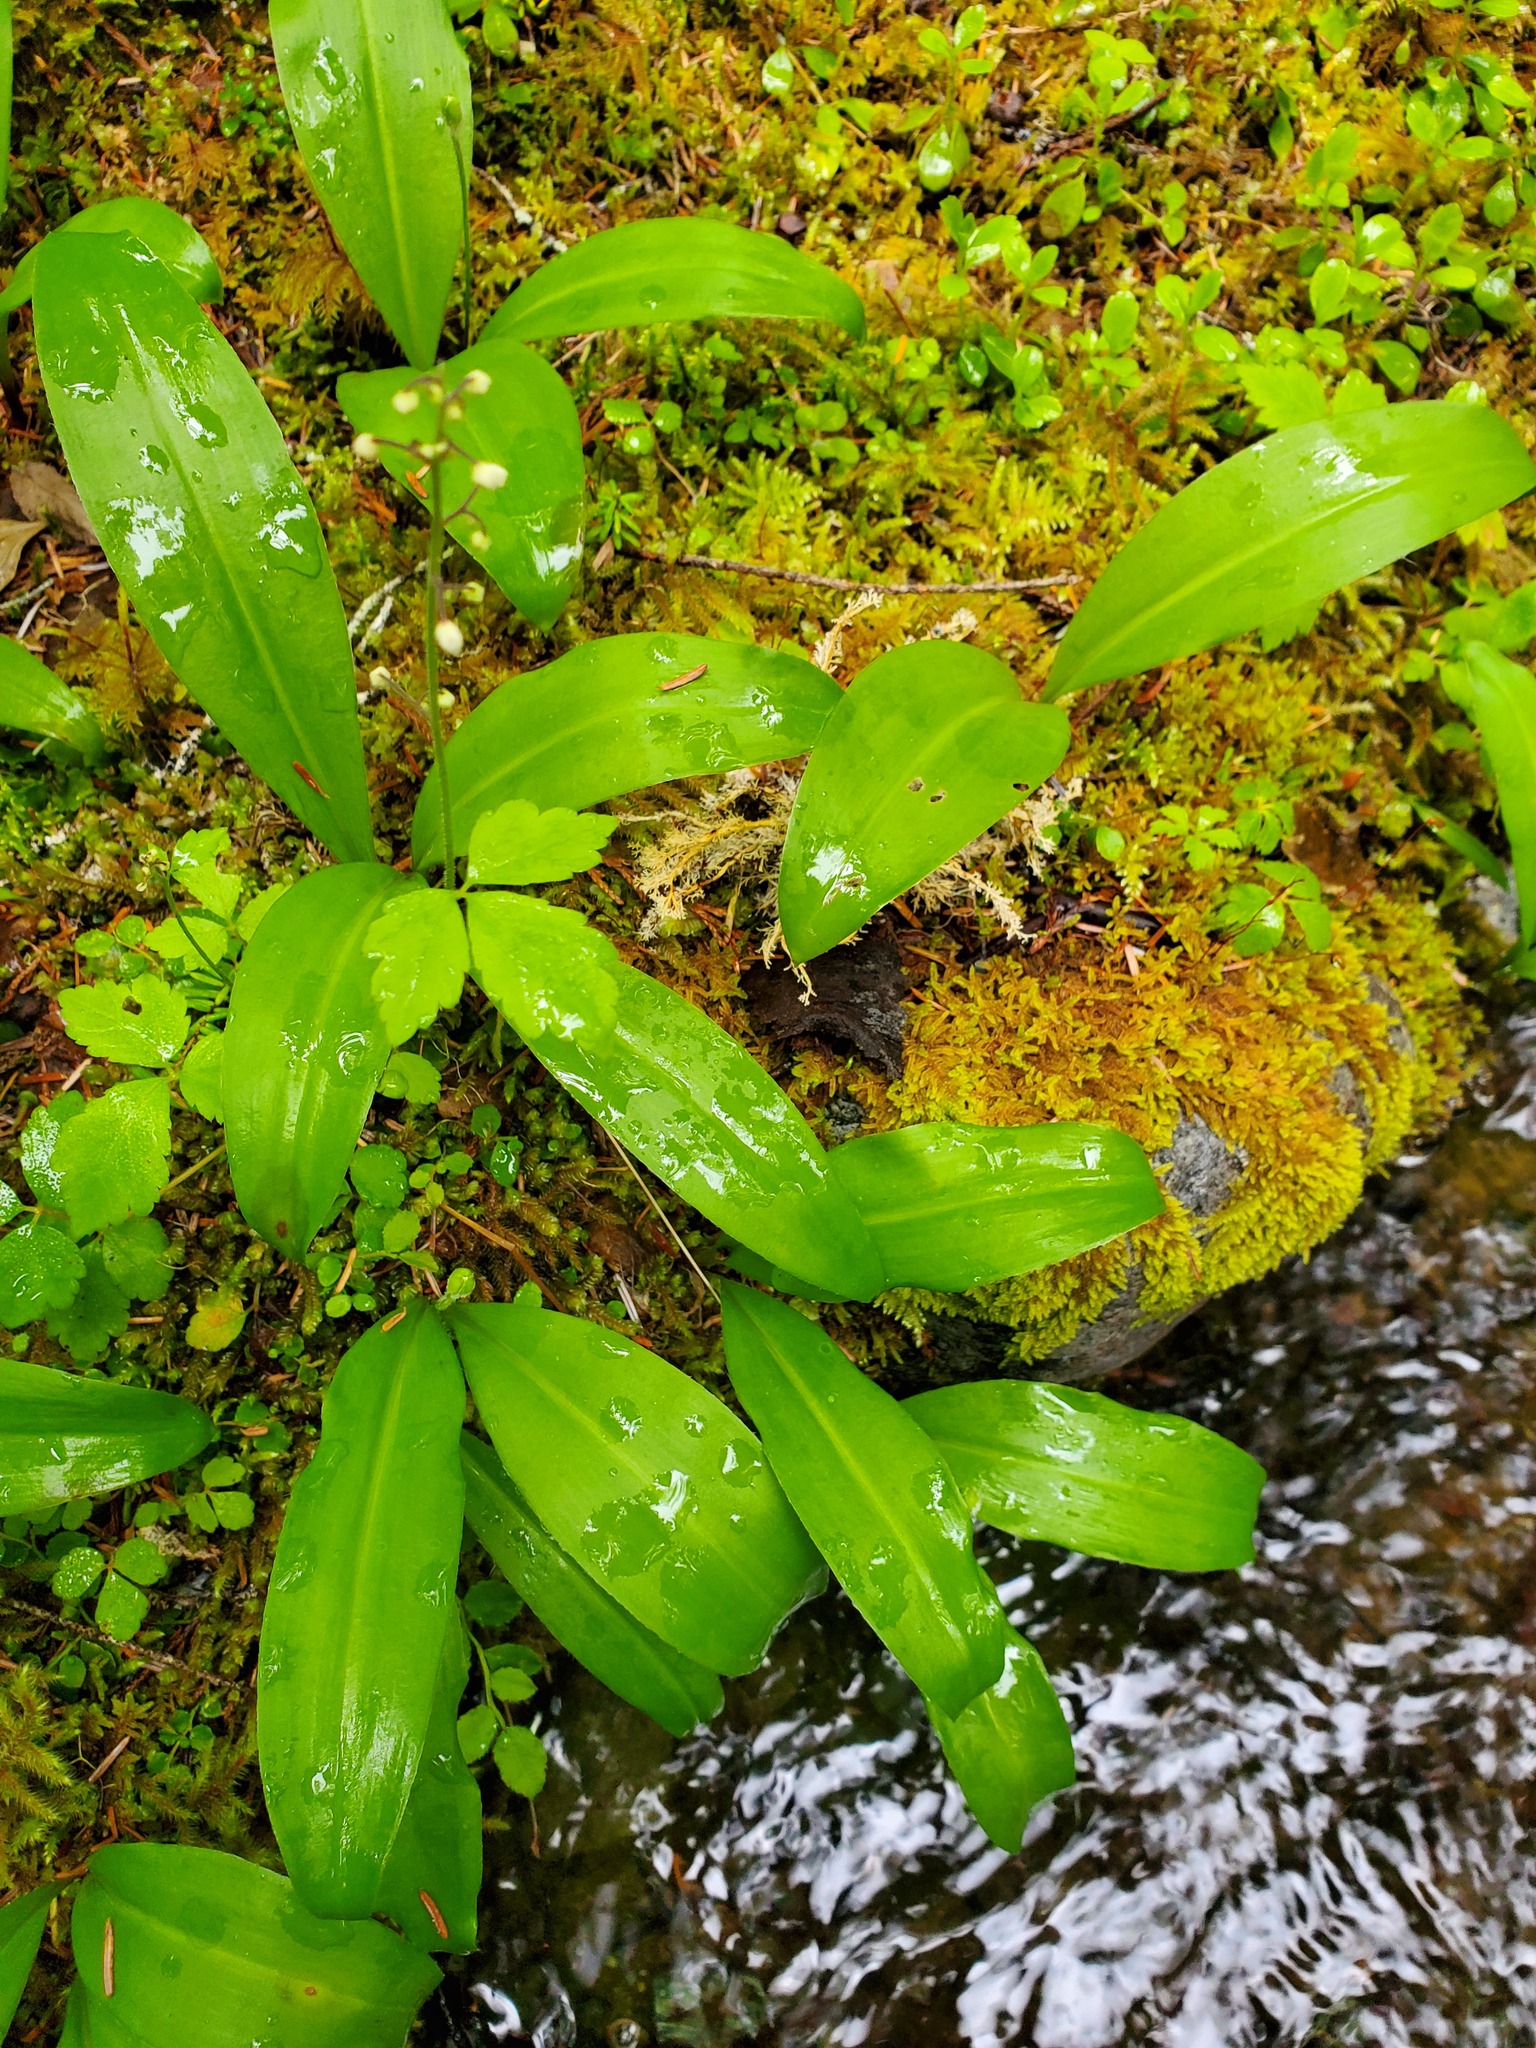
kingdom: Plantae
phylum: Tracheophyta
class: Liliopsida
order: Liliales
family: Liliaceae
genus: Clintonia
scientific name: Clintonia uniflora
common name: Queen's cup
